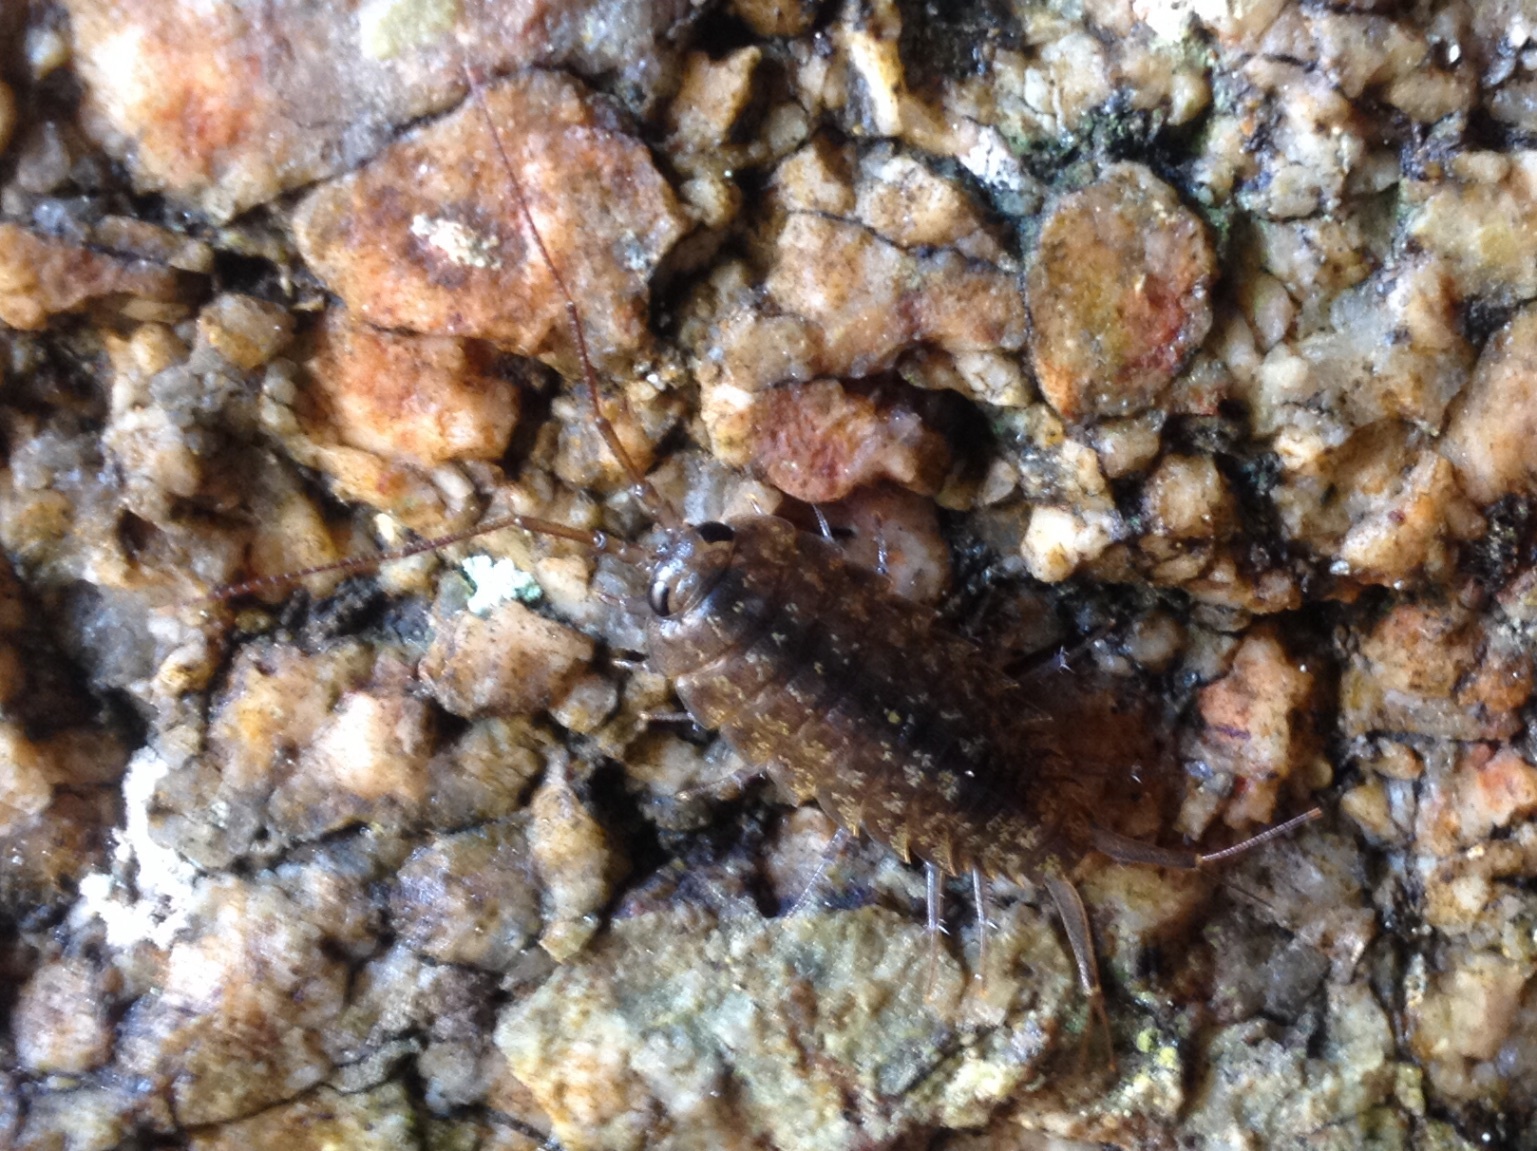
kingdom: Animalia
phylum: Arthropoda
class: Malacostraca
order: Isopoda
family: Ligiidae
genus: Ligia
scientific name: Ligia novizealandiae
